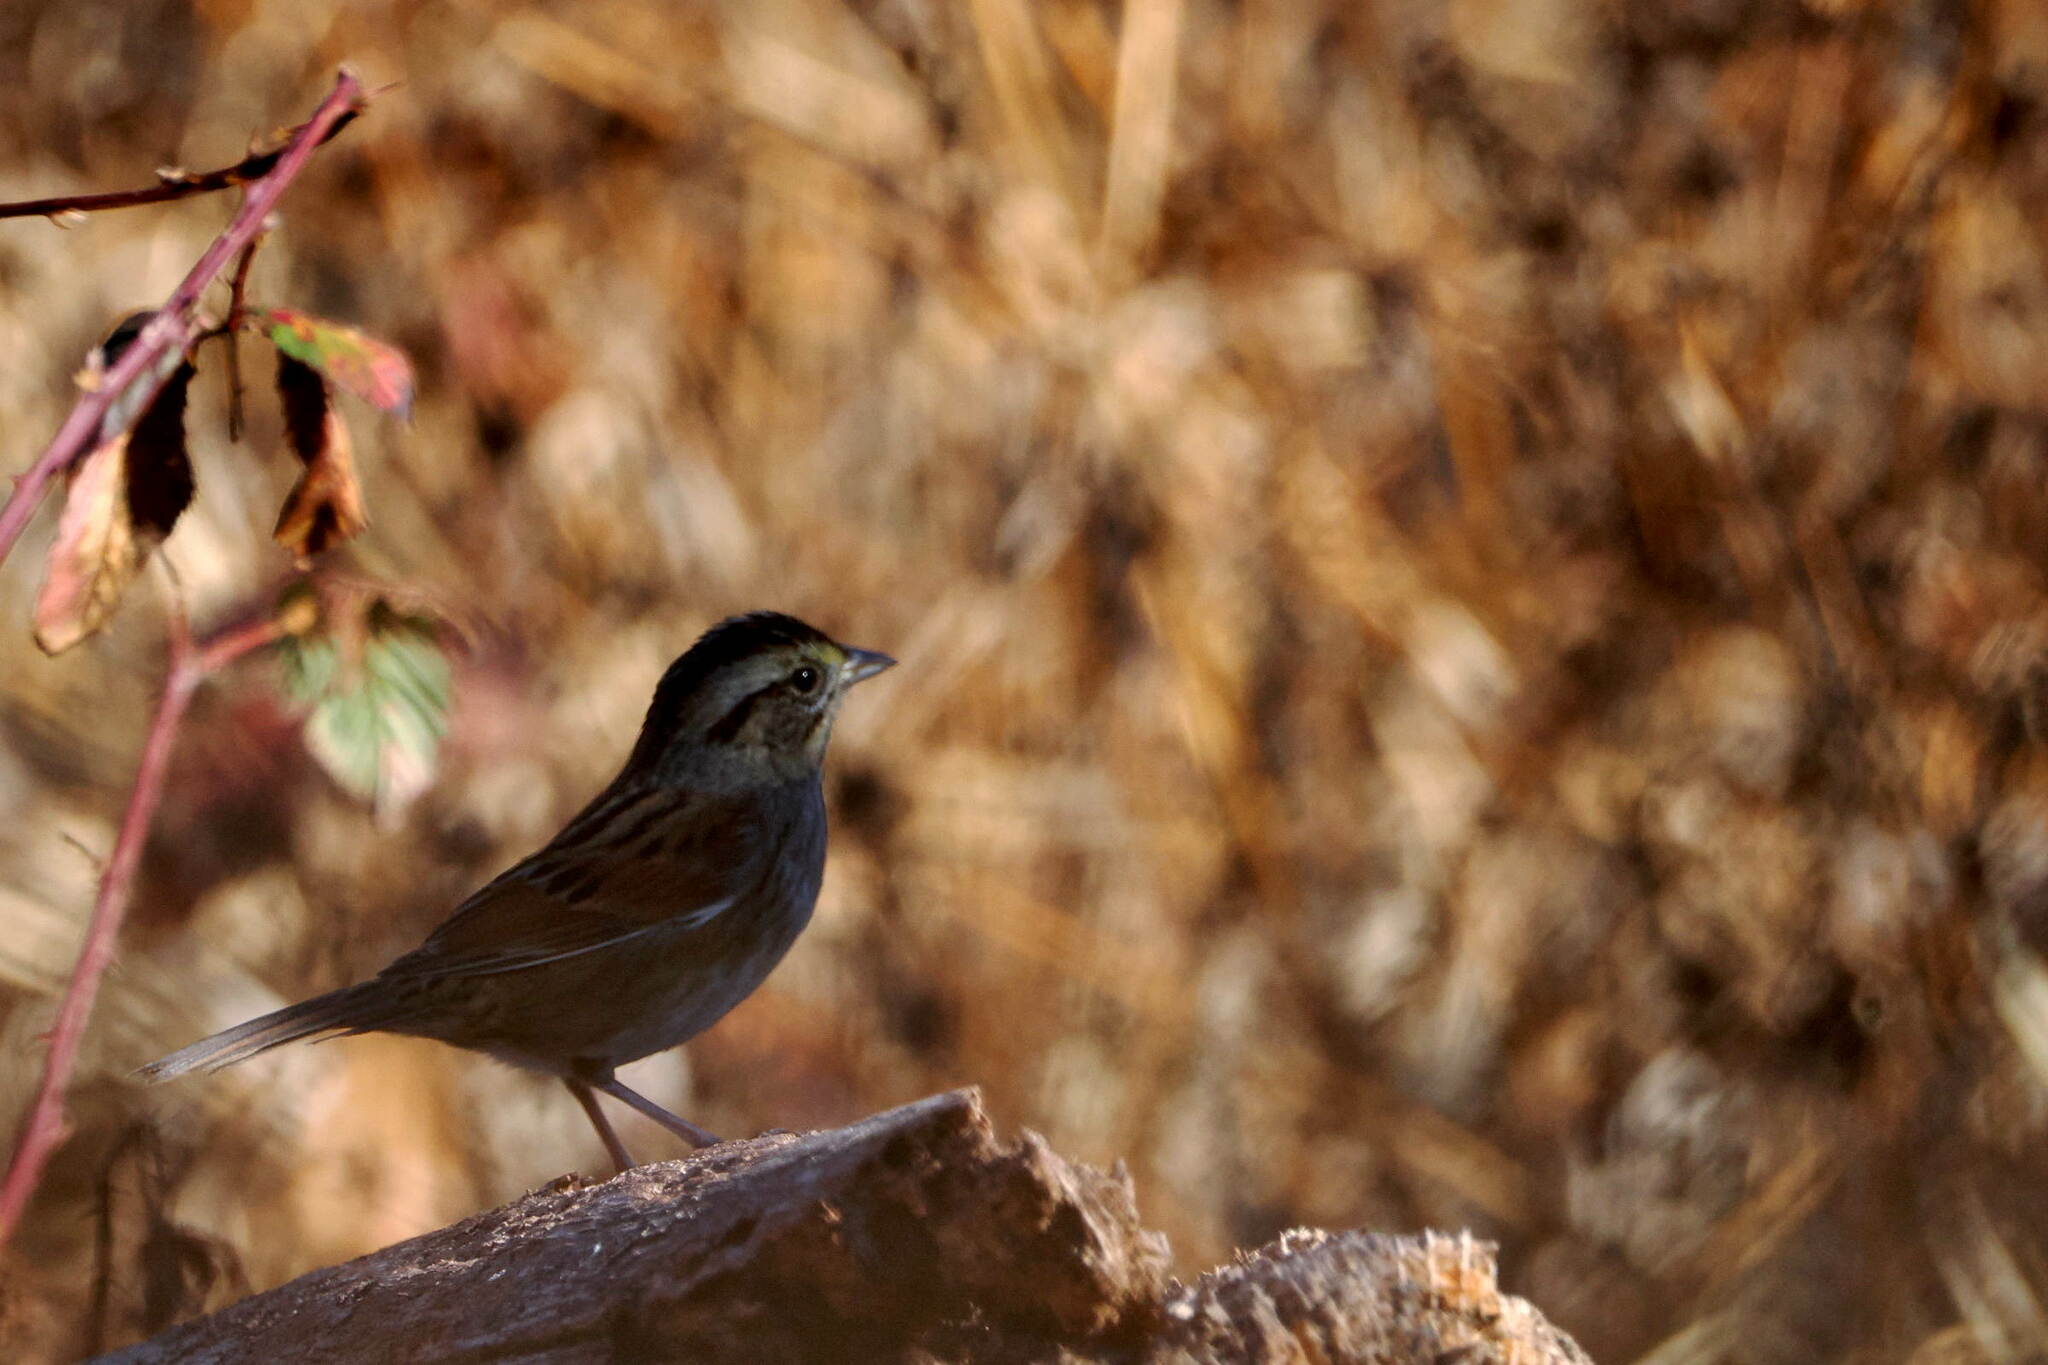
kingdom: Animalia
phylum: Chordata
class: Aves
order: Passeriformes
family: Passerellidae
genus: Melospiza
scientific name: Melospiza georgiana
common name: Swamp sparrow
